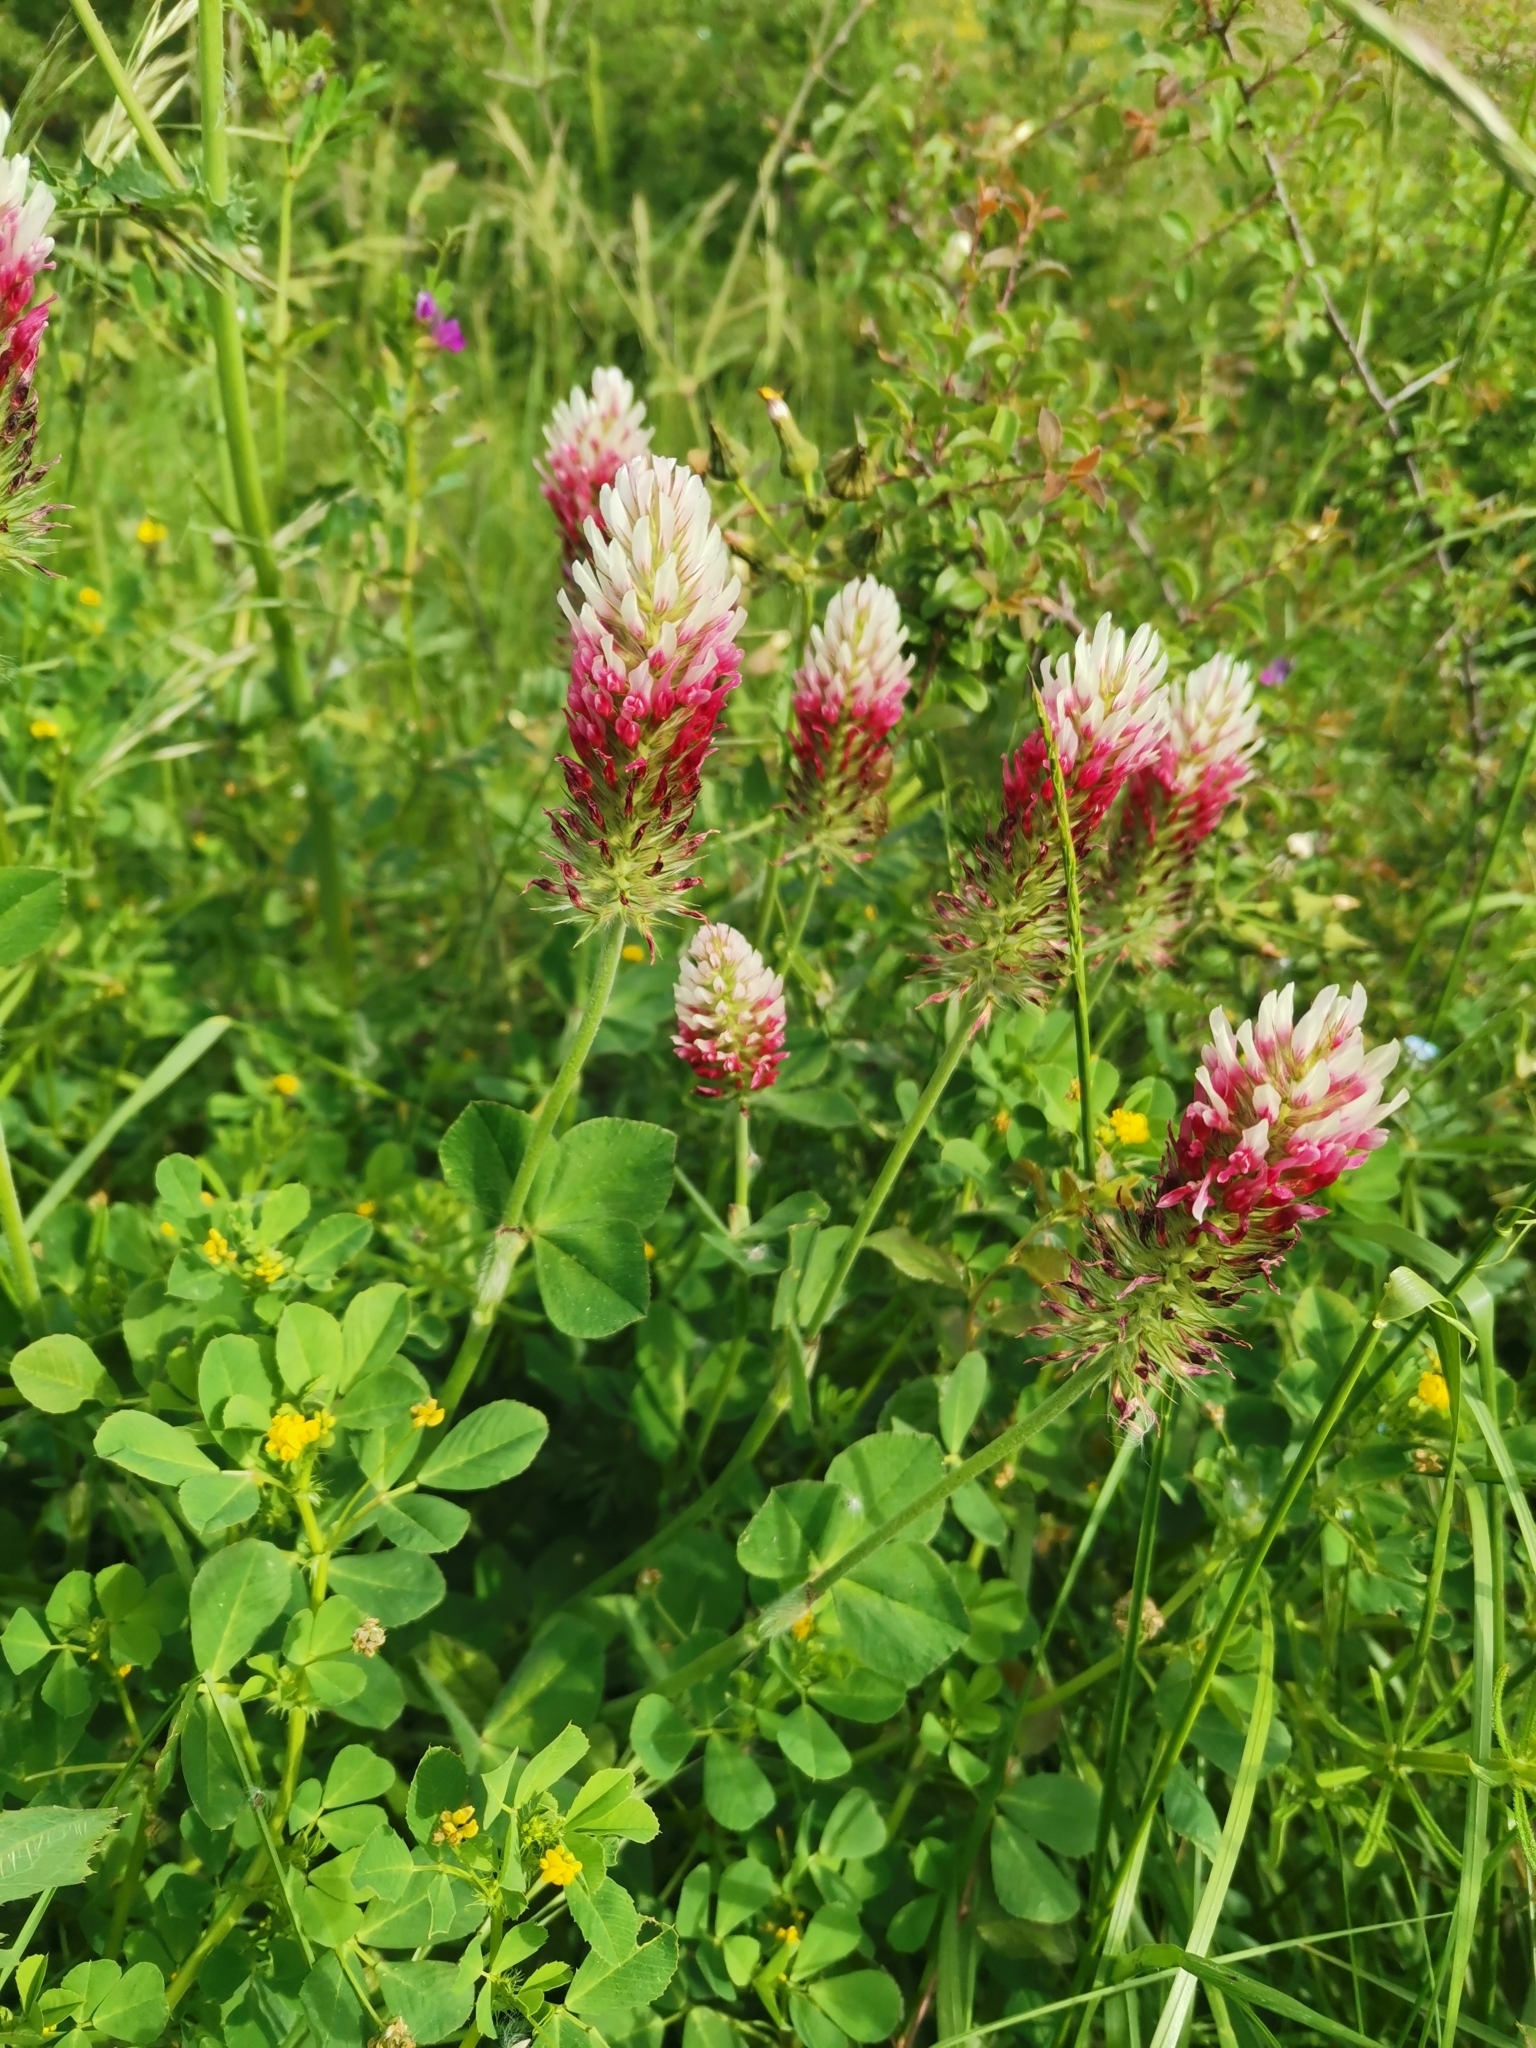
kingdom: Plantae
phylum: Tracheophyta
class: Magnoliopsida
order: Fabales
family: Fabaceae
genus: Trifolium
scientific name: Trifolium incarnatum
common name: Crimson clover
